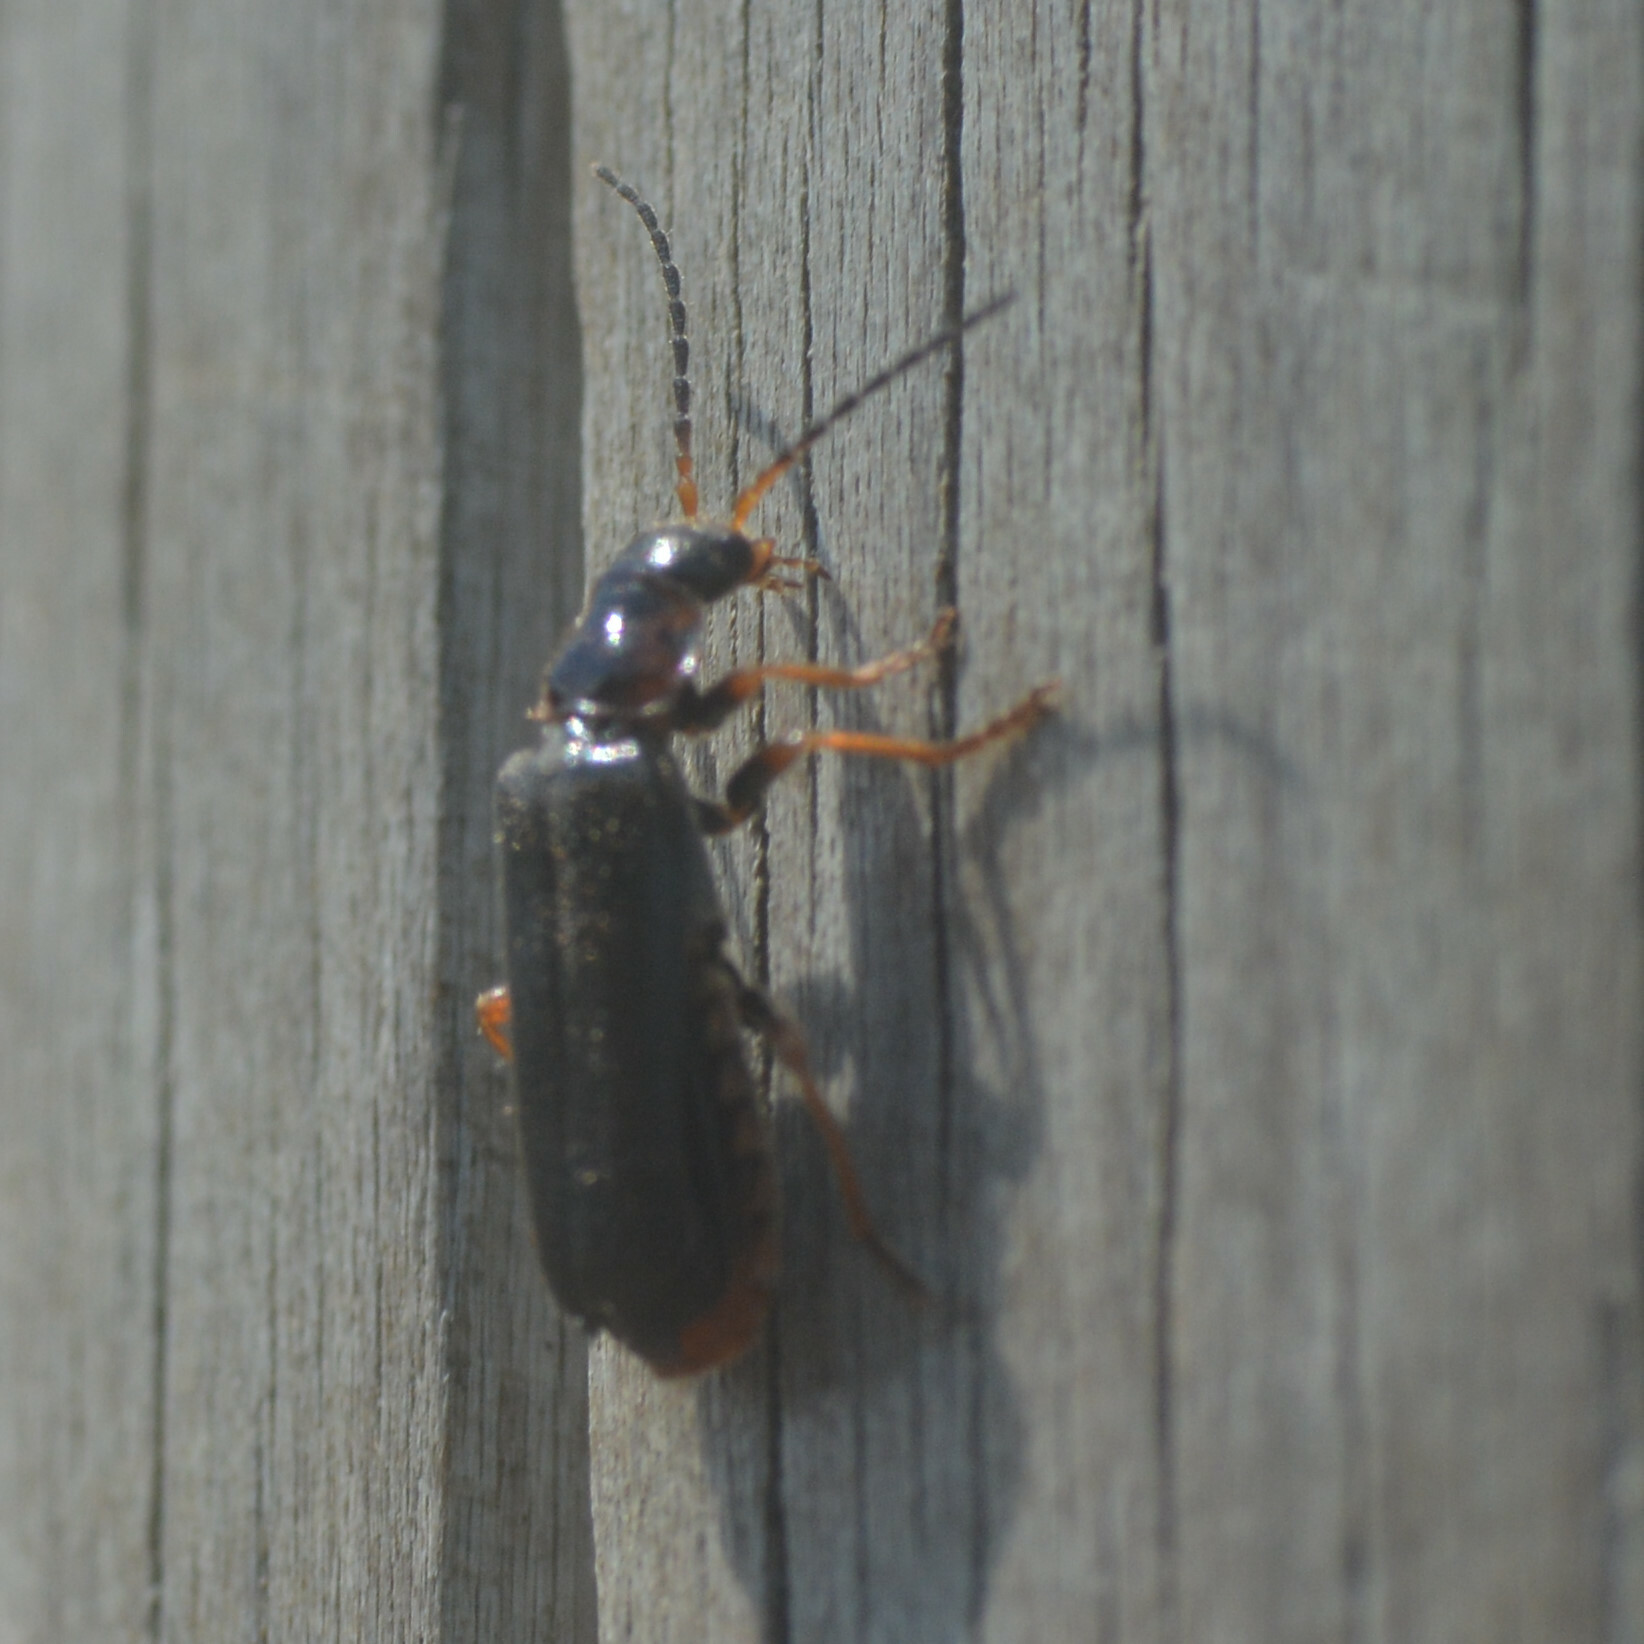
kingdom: Animalia
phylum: Arthropoda
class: Insecta
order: Coleoptera
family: Cantharidae
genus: Cantharis
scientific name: Cantharis flavilabris
